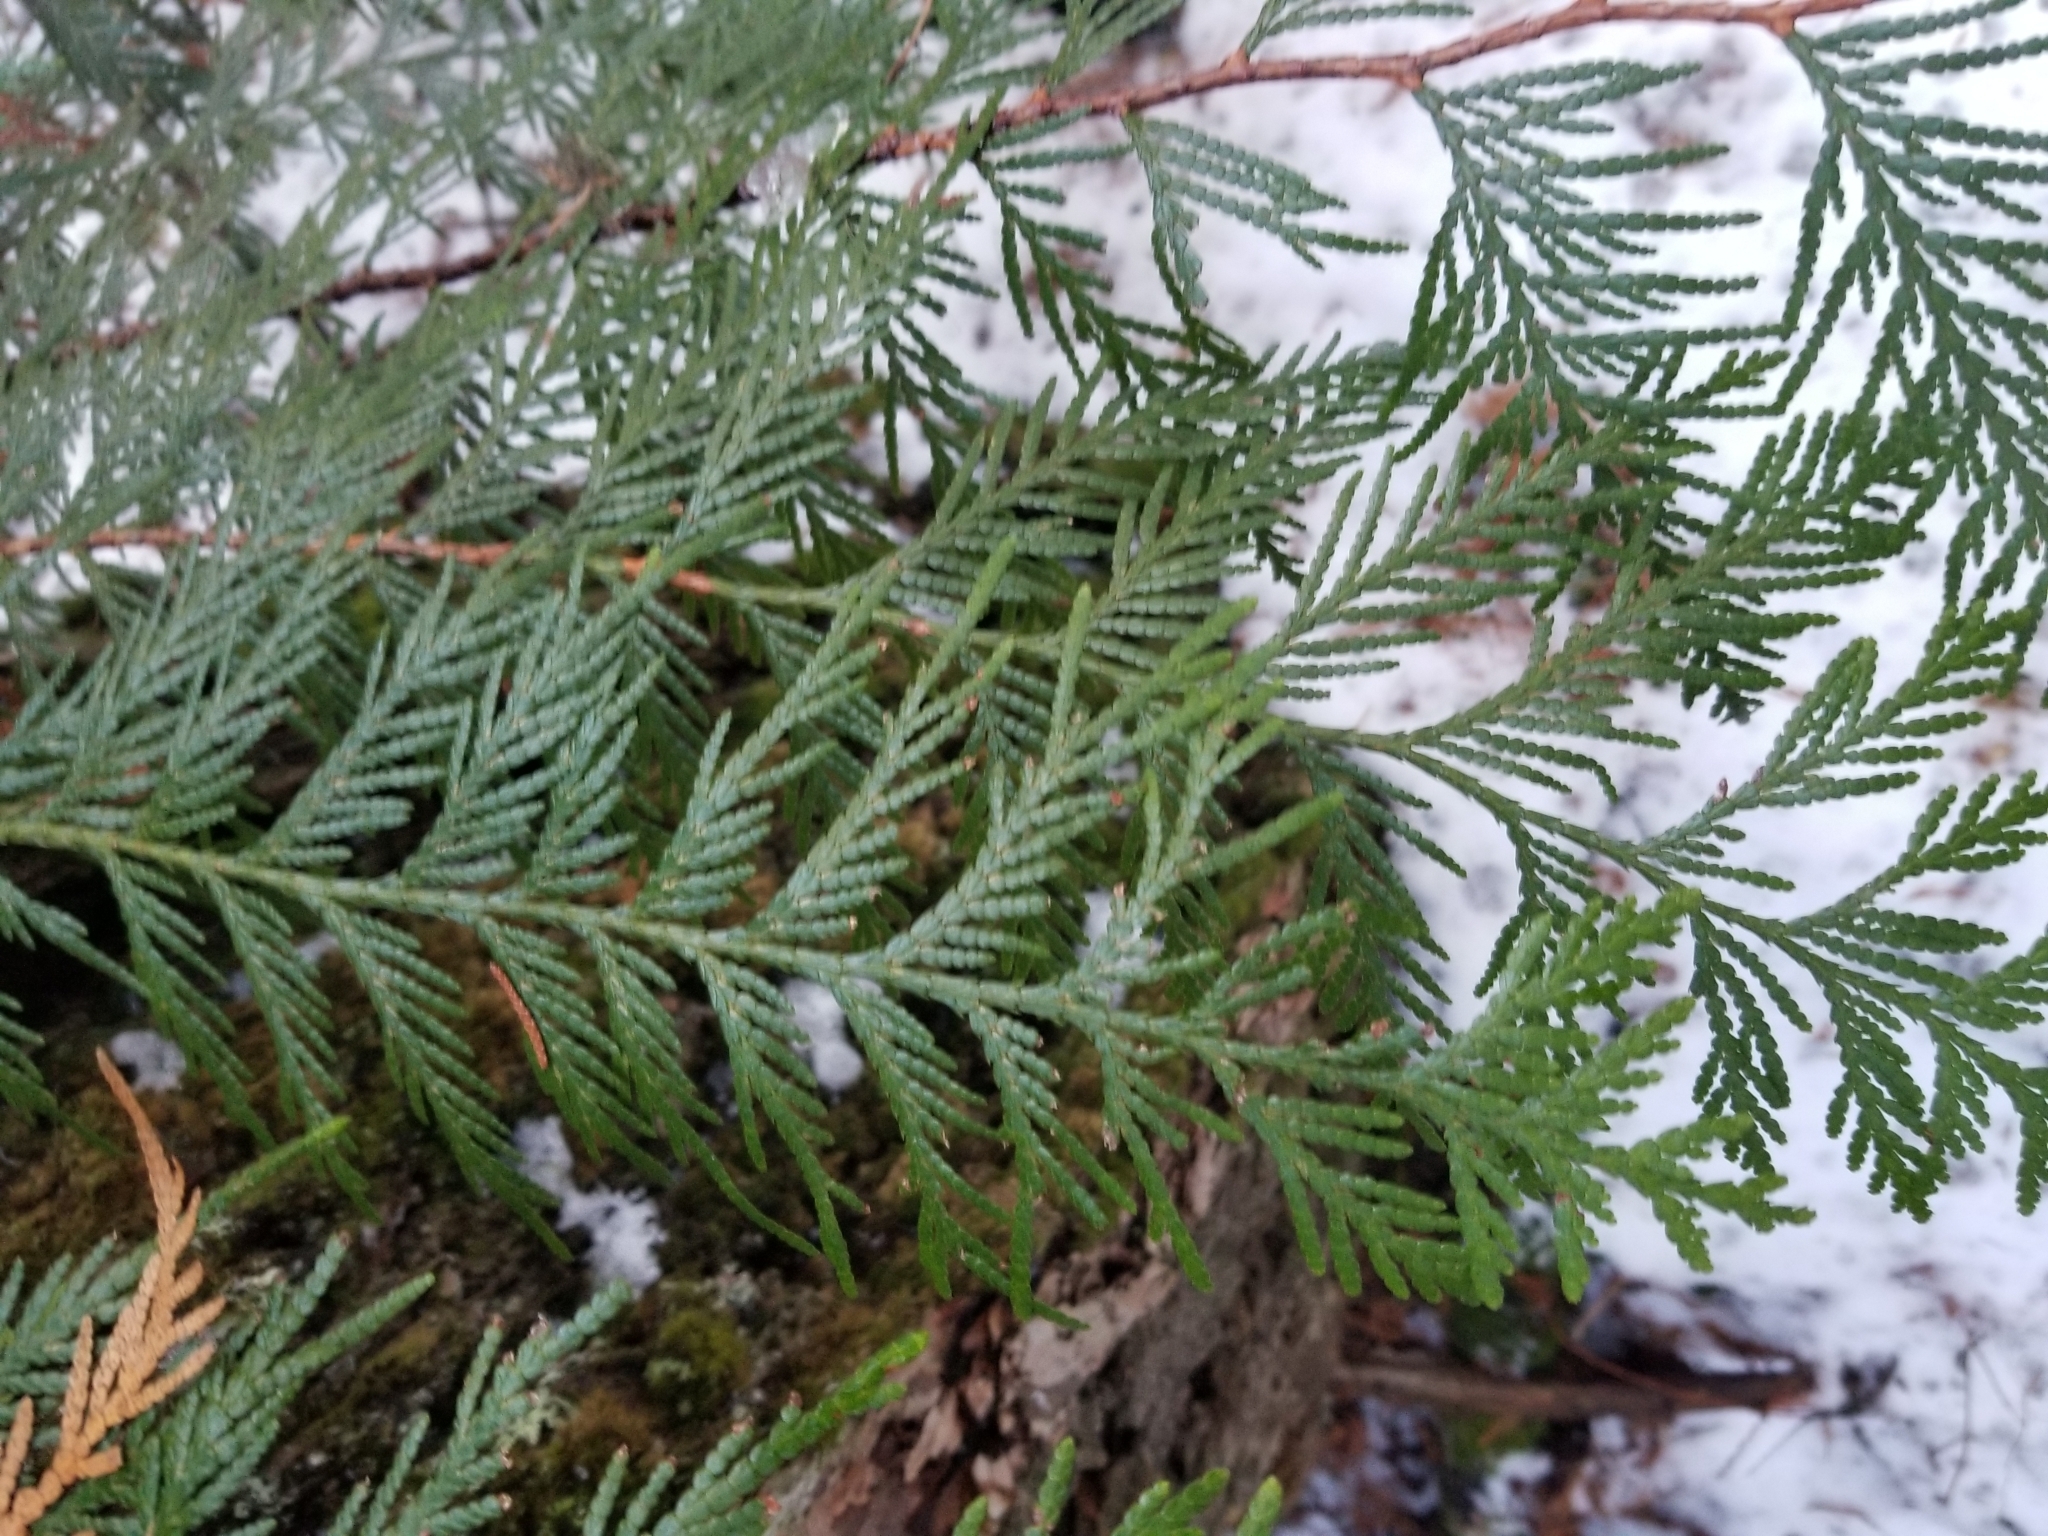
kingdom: Plantae
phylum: Tracheophyta
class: Pinopsida
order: Pinales
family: Cupressaceae
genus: Thuja
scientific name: Thuja plicata
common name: Western red-cedar
